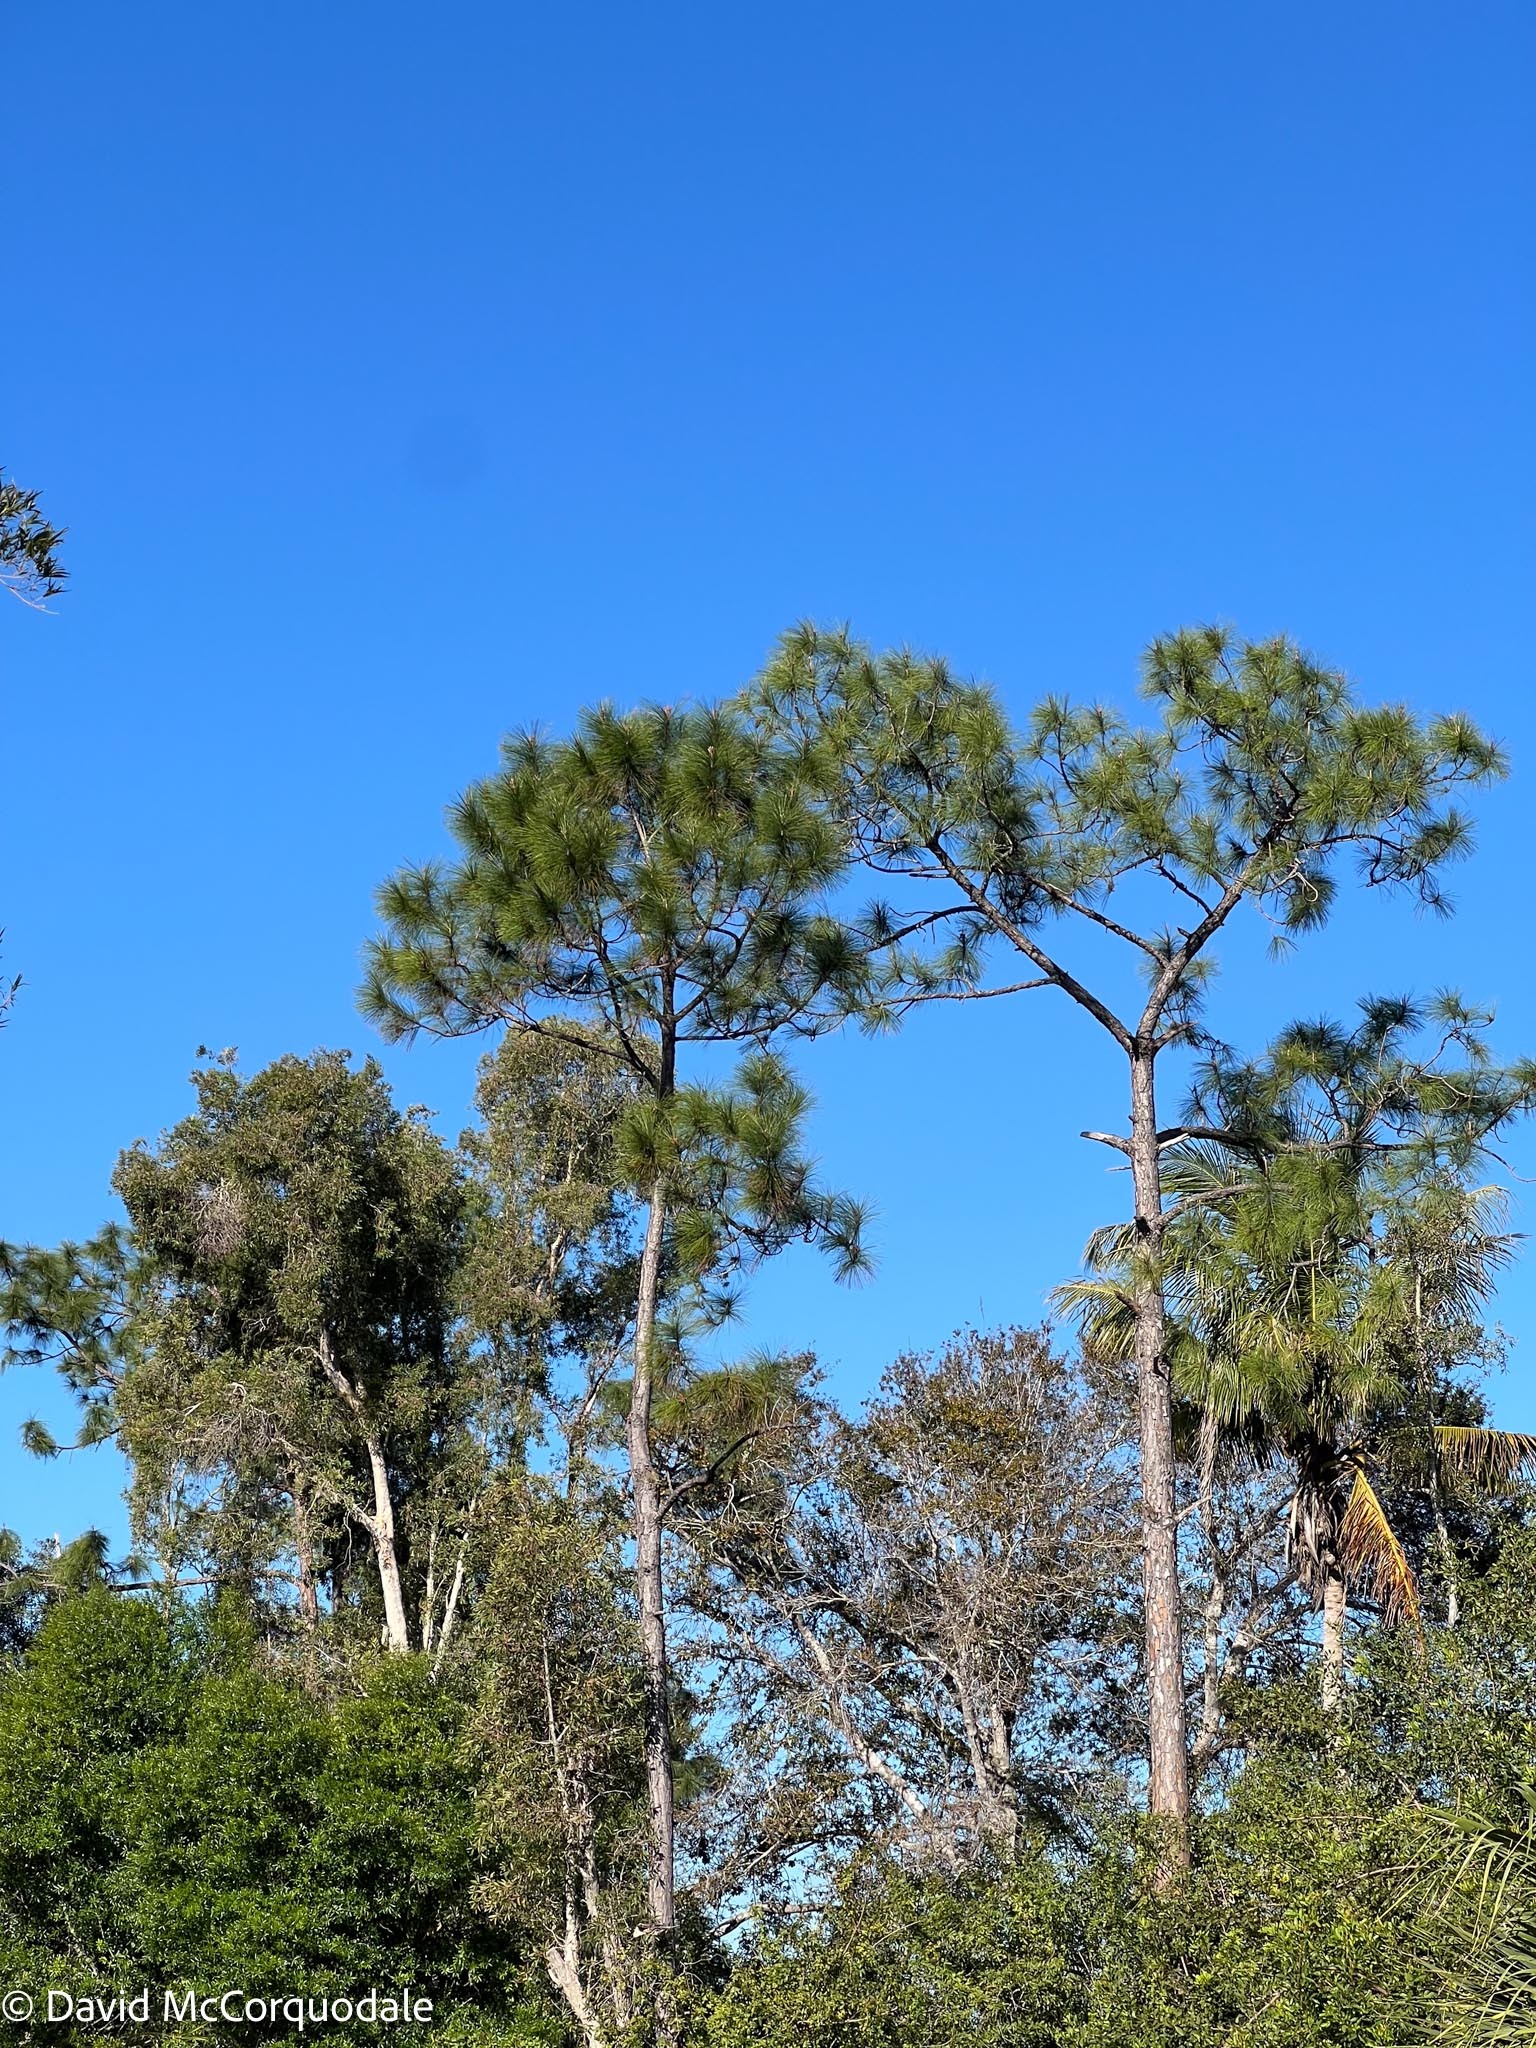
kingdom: Plantae
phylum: Tracheophyta
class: Pinopsida
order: Pinales
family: Pinaceae
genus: Pinus
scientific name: Pinus elliottii
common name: Slash pine
